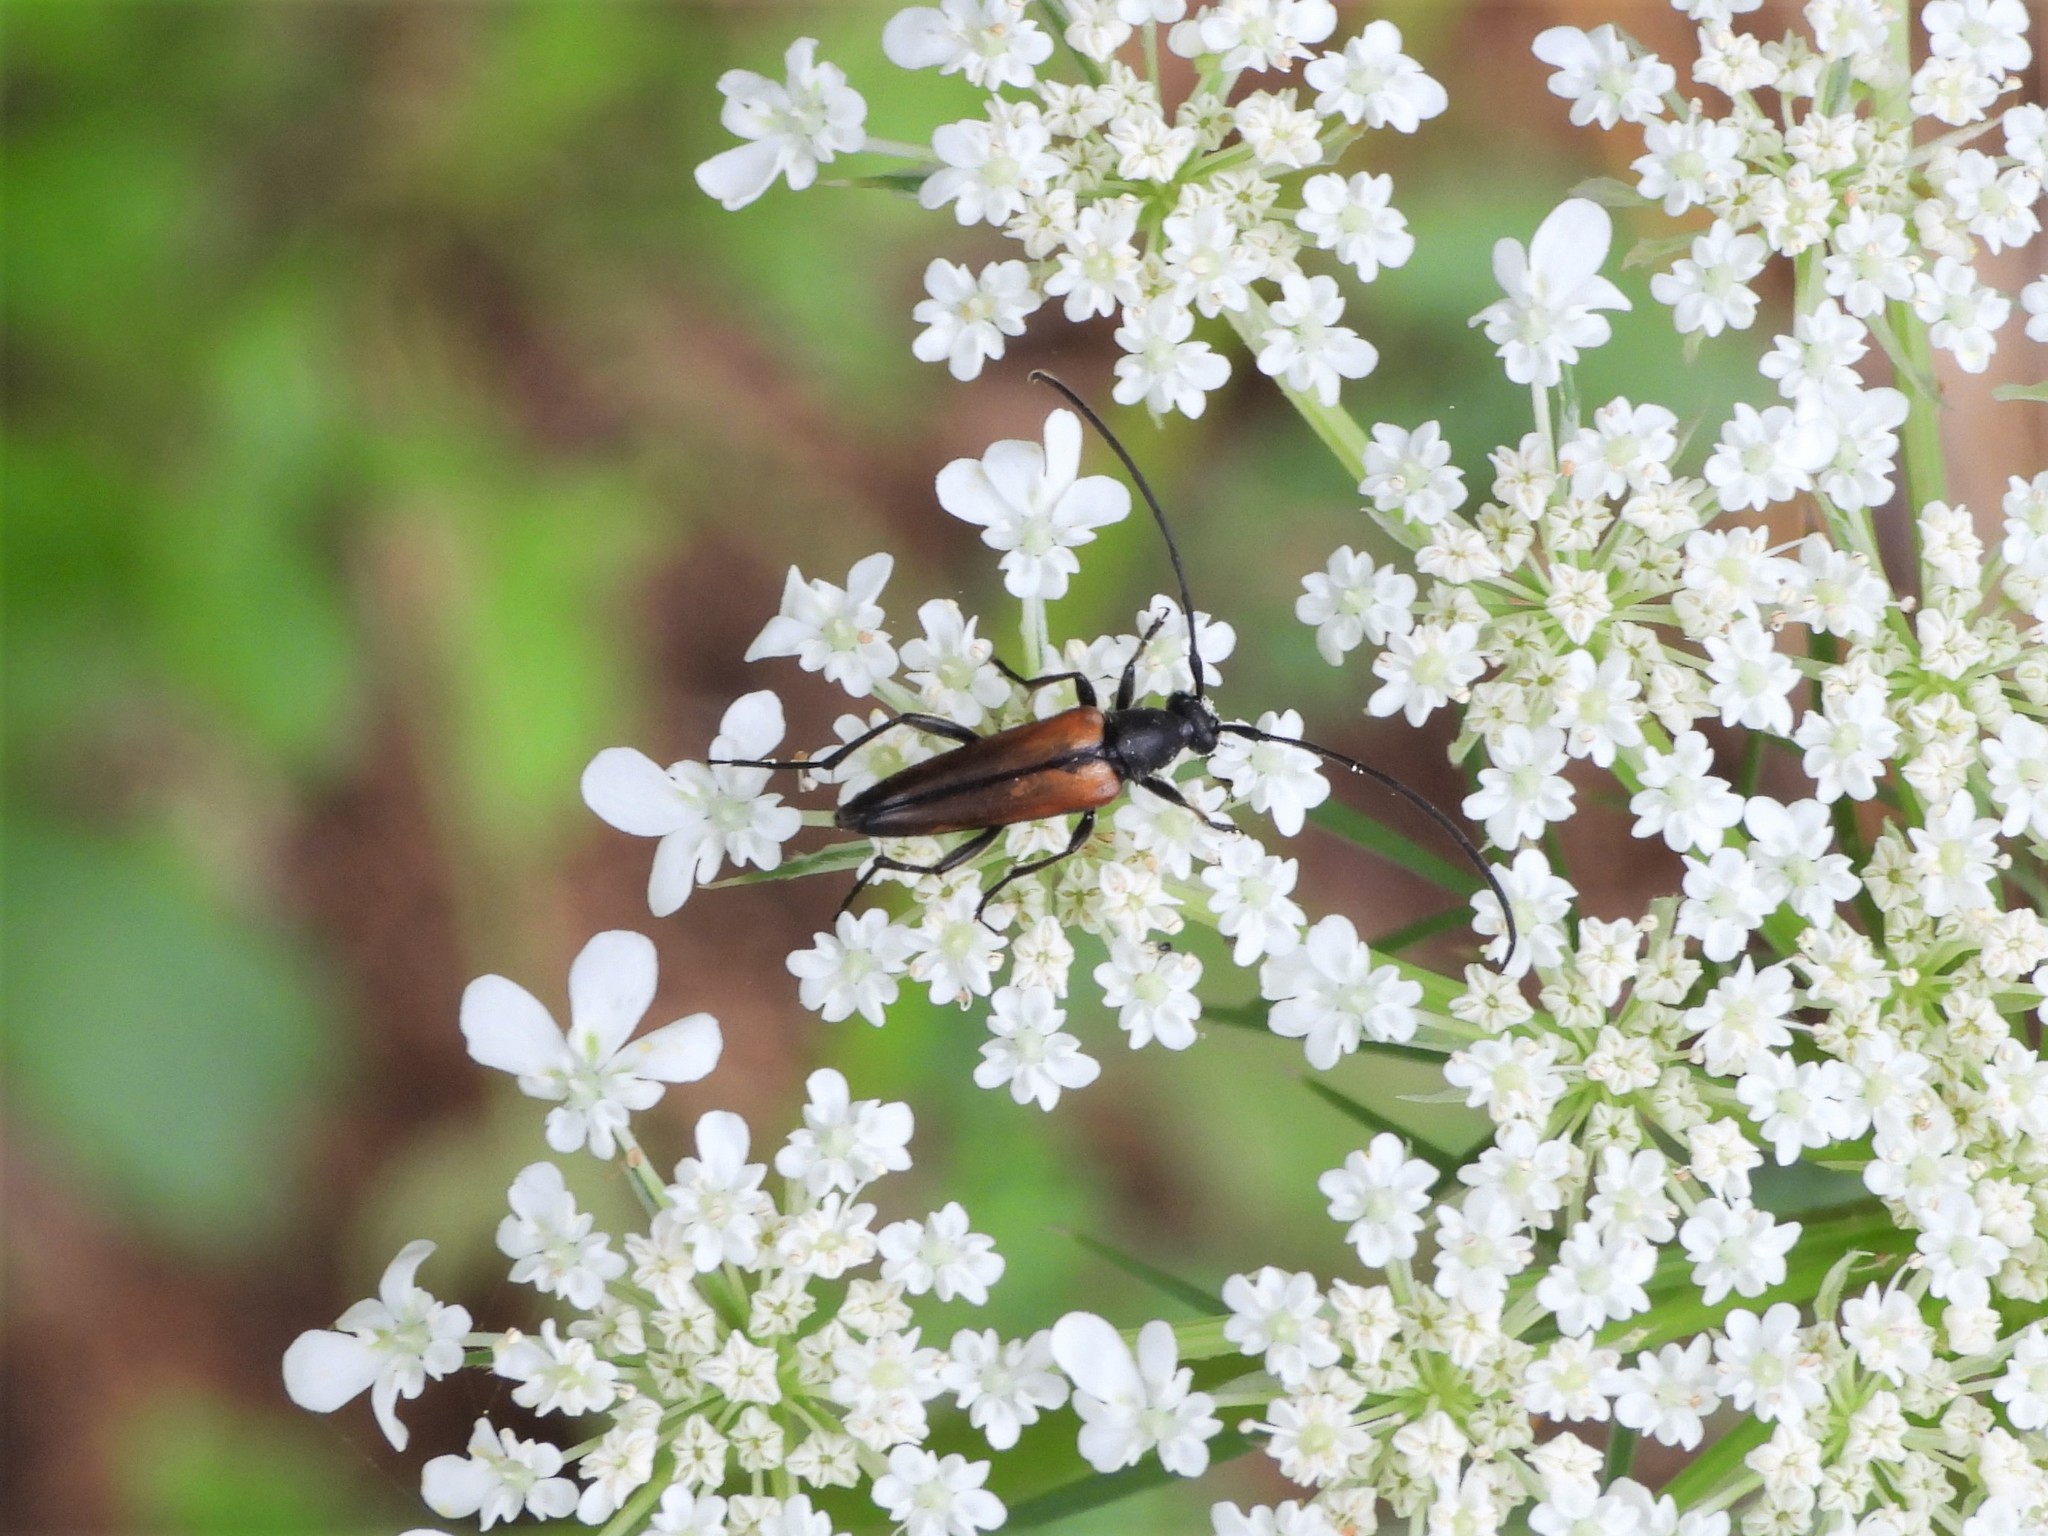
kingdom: Animalia
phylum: Arthropoda
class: Insecta
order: Coleoptera
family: Cerambycidae
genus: Stenurella
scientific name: Stenurella melanura
